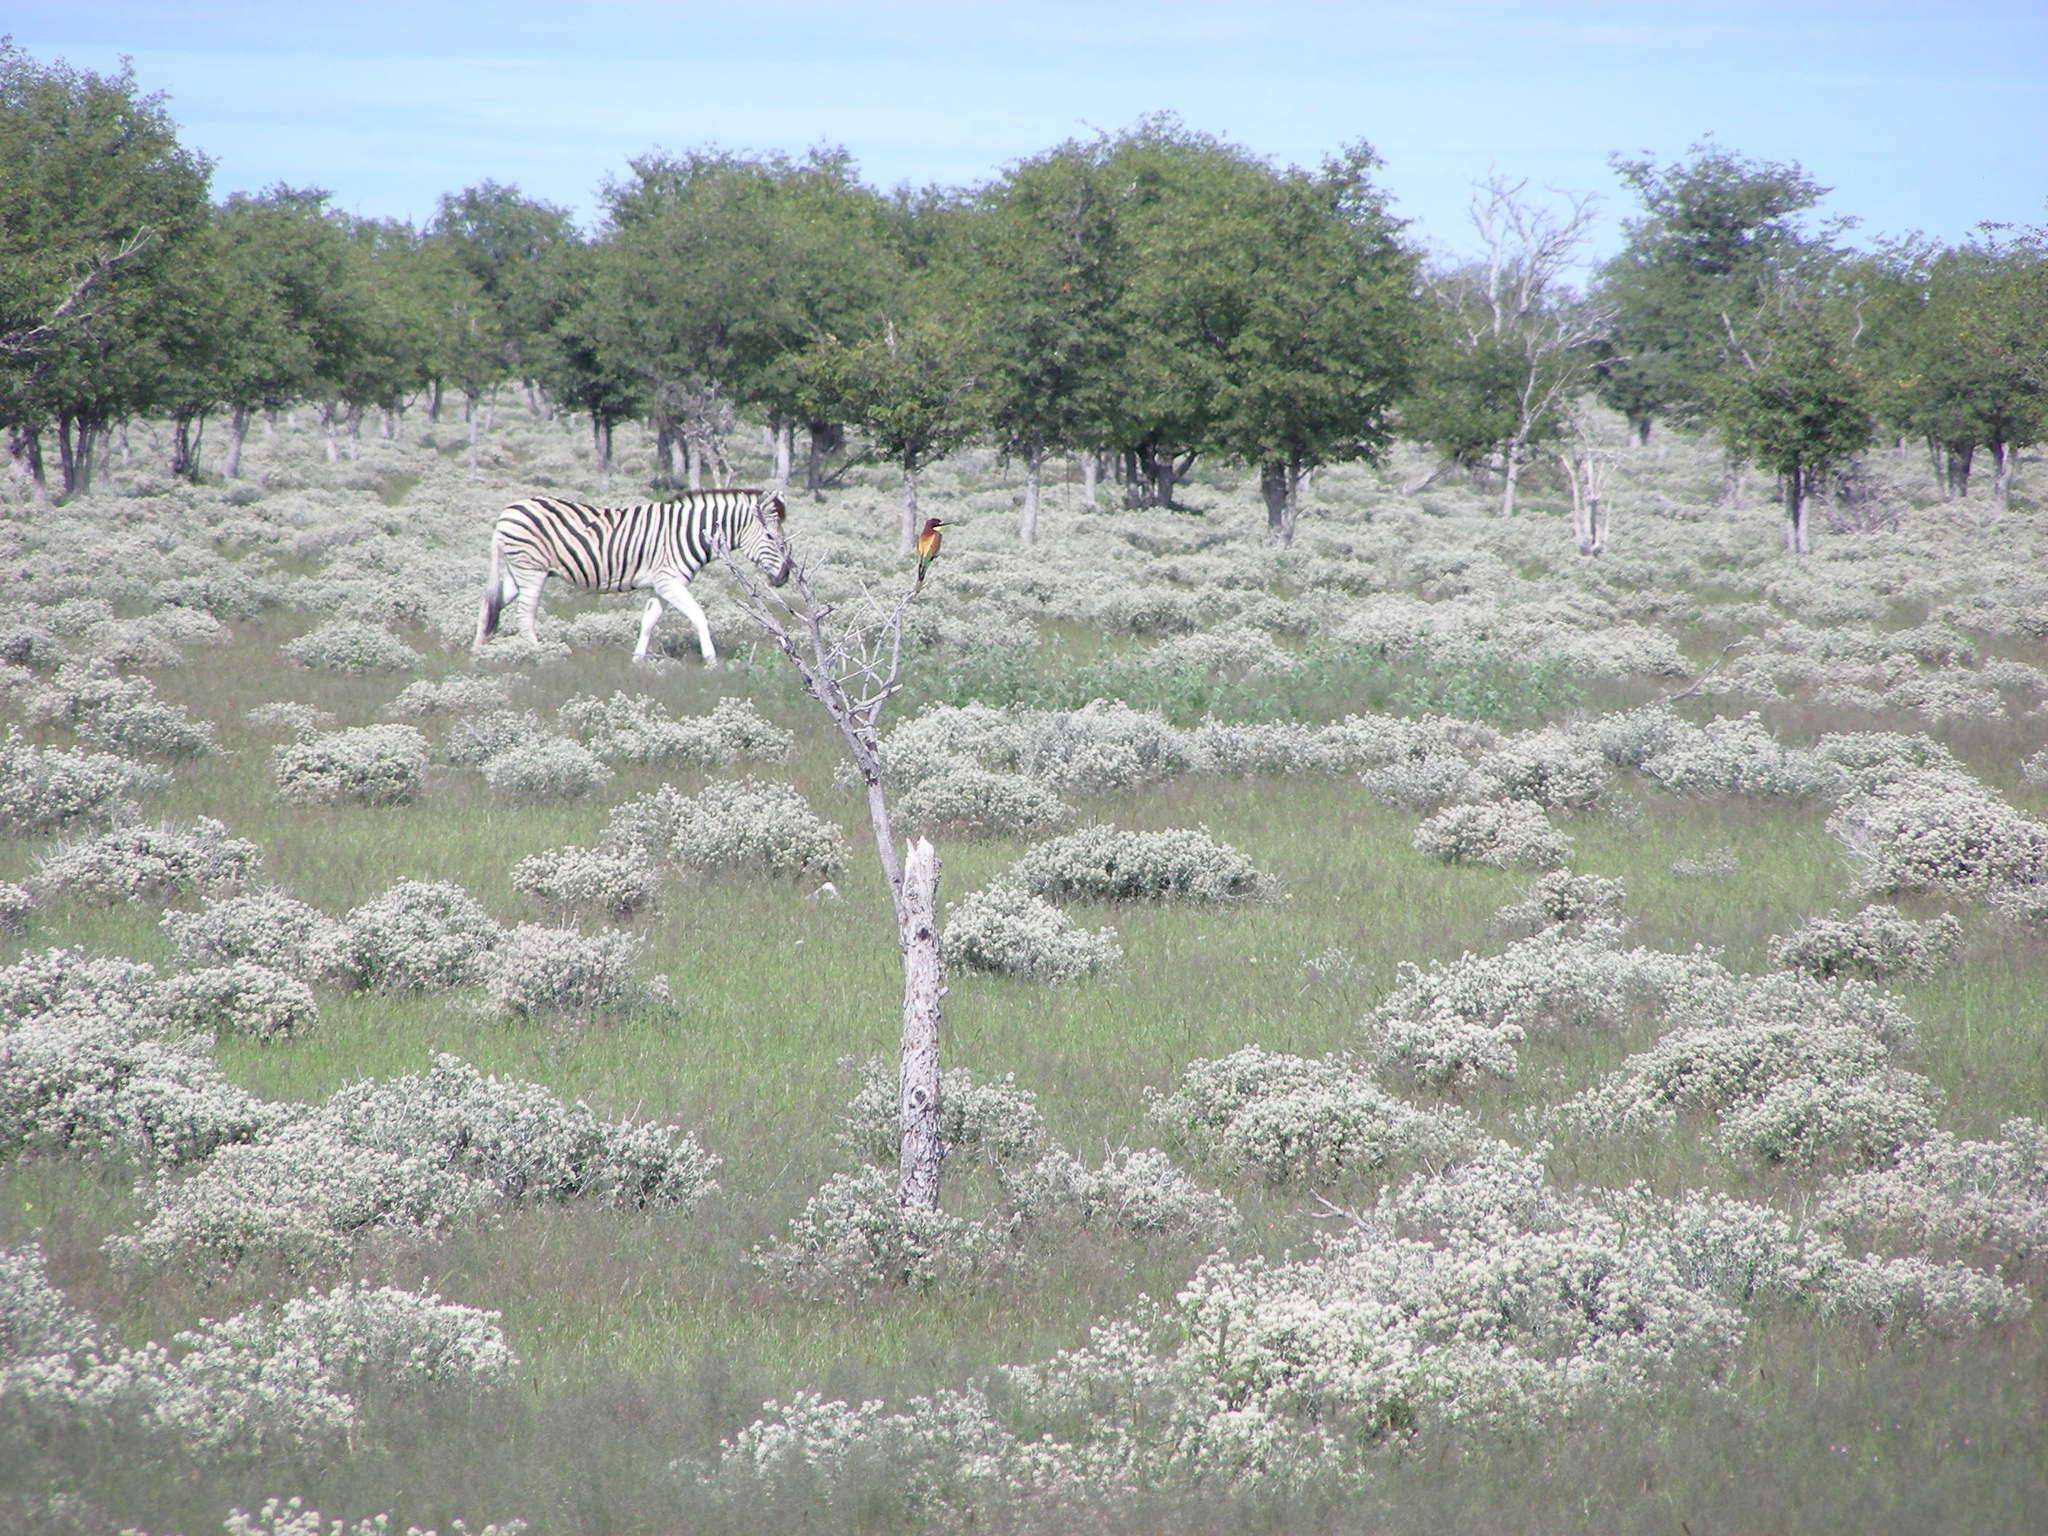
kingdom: Animalia
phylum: Chordata
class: Mammalia
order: Perissodactyla
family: Equidae
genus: Equus
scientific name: Equus quagga
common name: Plains zebra
